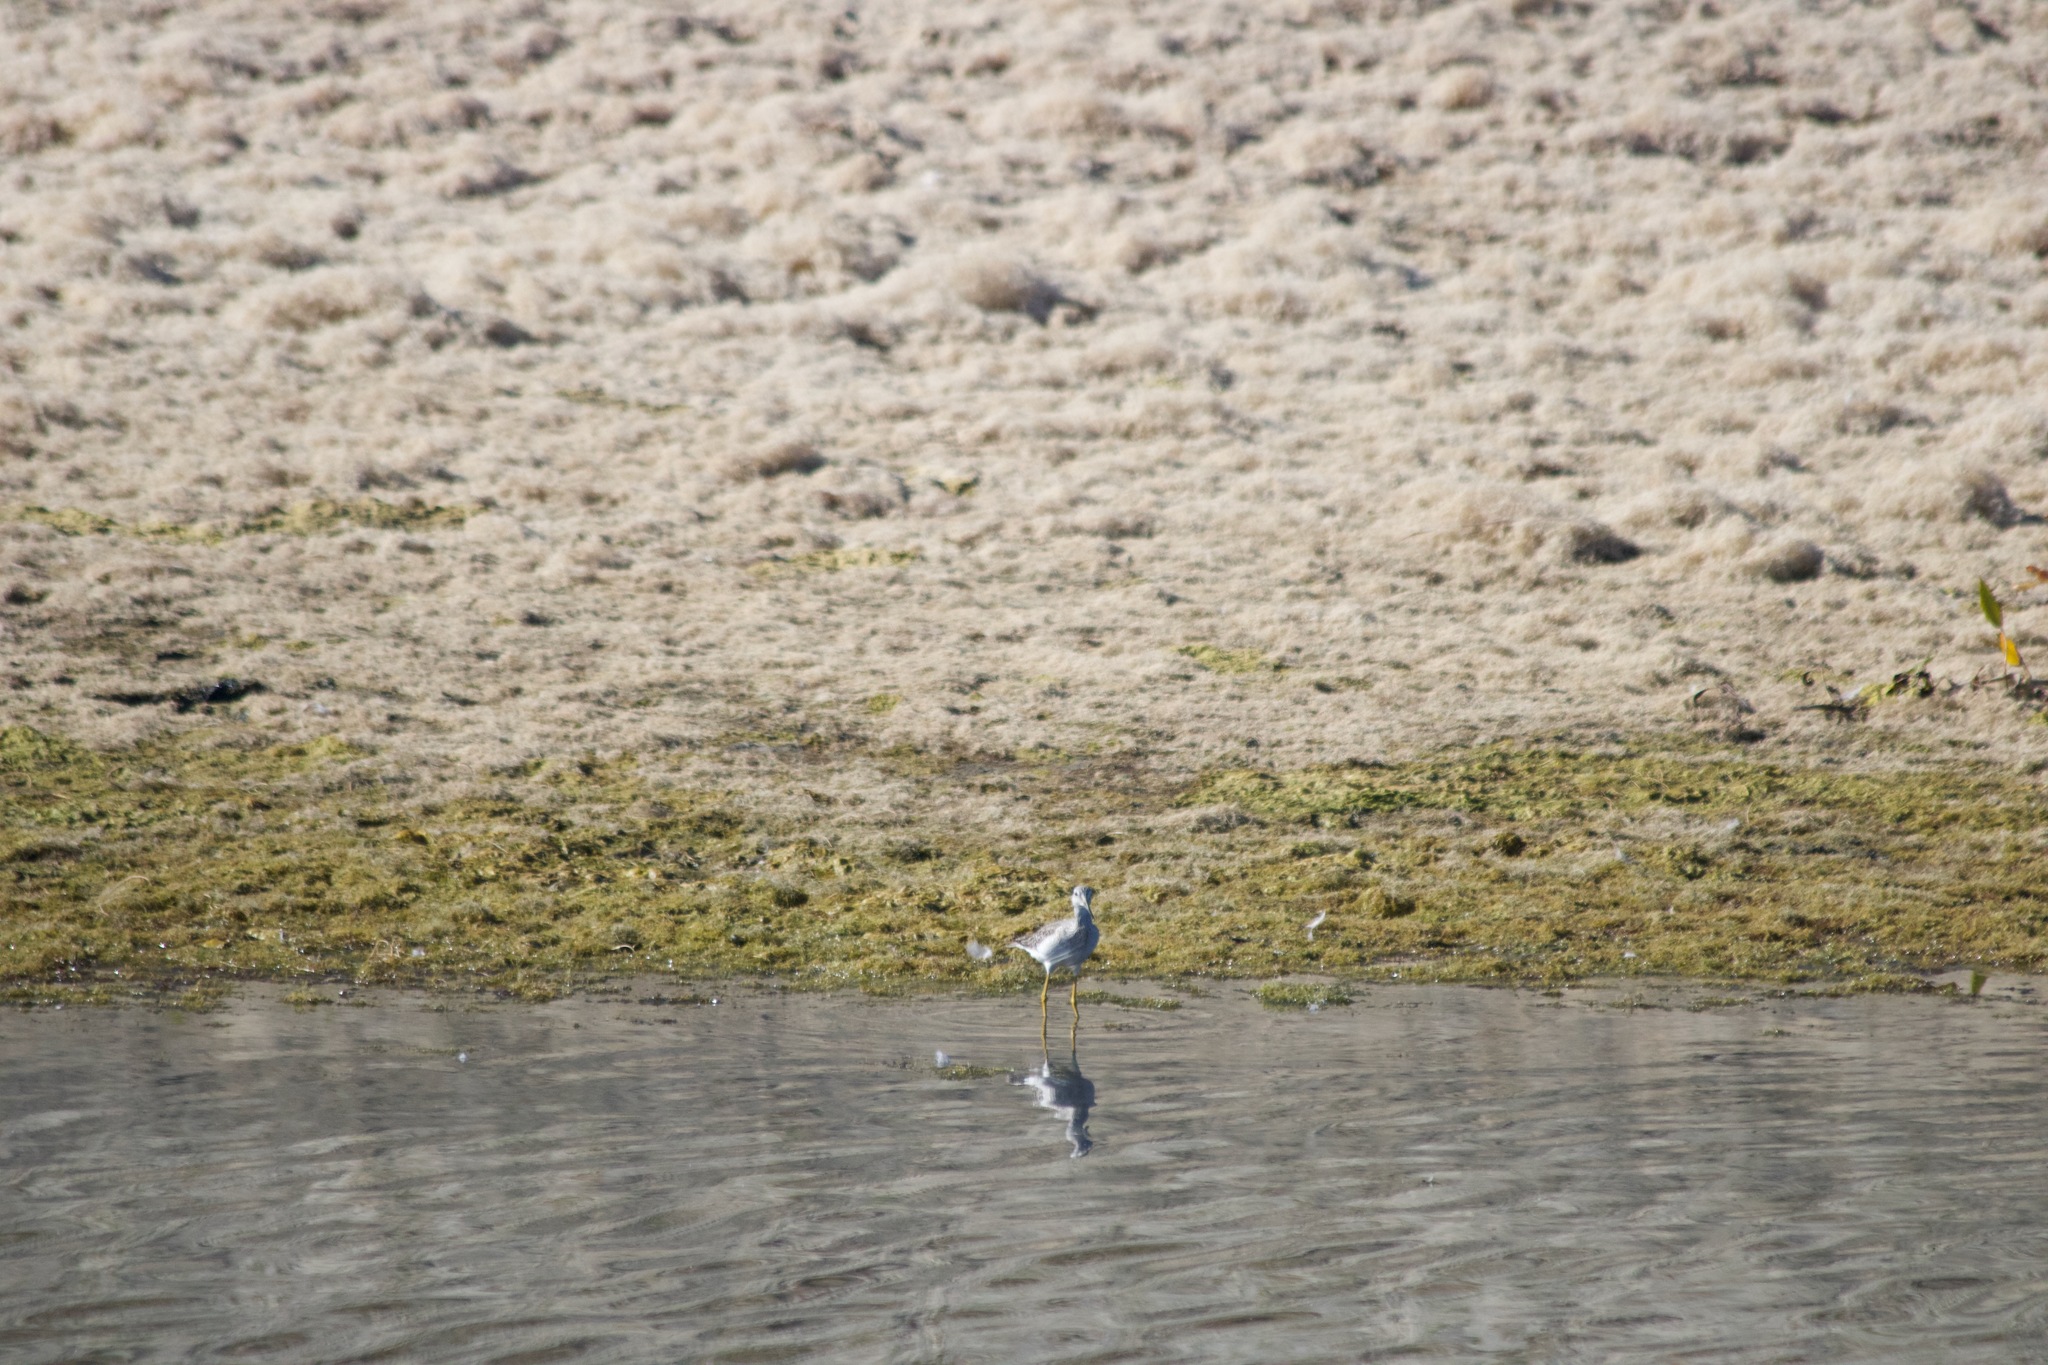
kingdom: Animalia
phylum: Chordata
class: Aves
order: Charadriiformes
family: Scolopacidae
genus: Tringa
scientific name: Tringa melanoleuca
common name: Greater yellowlegs
